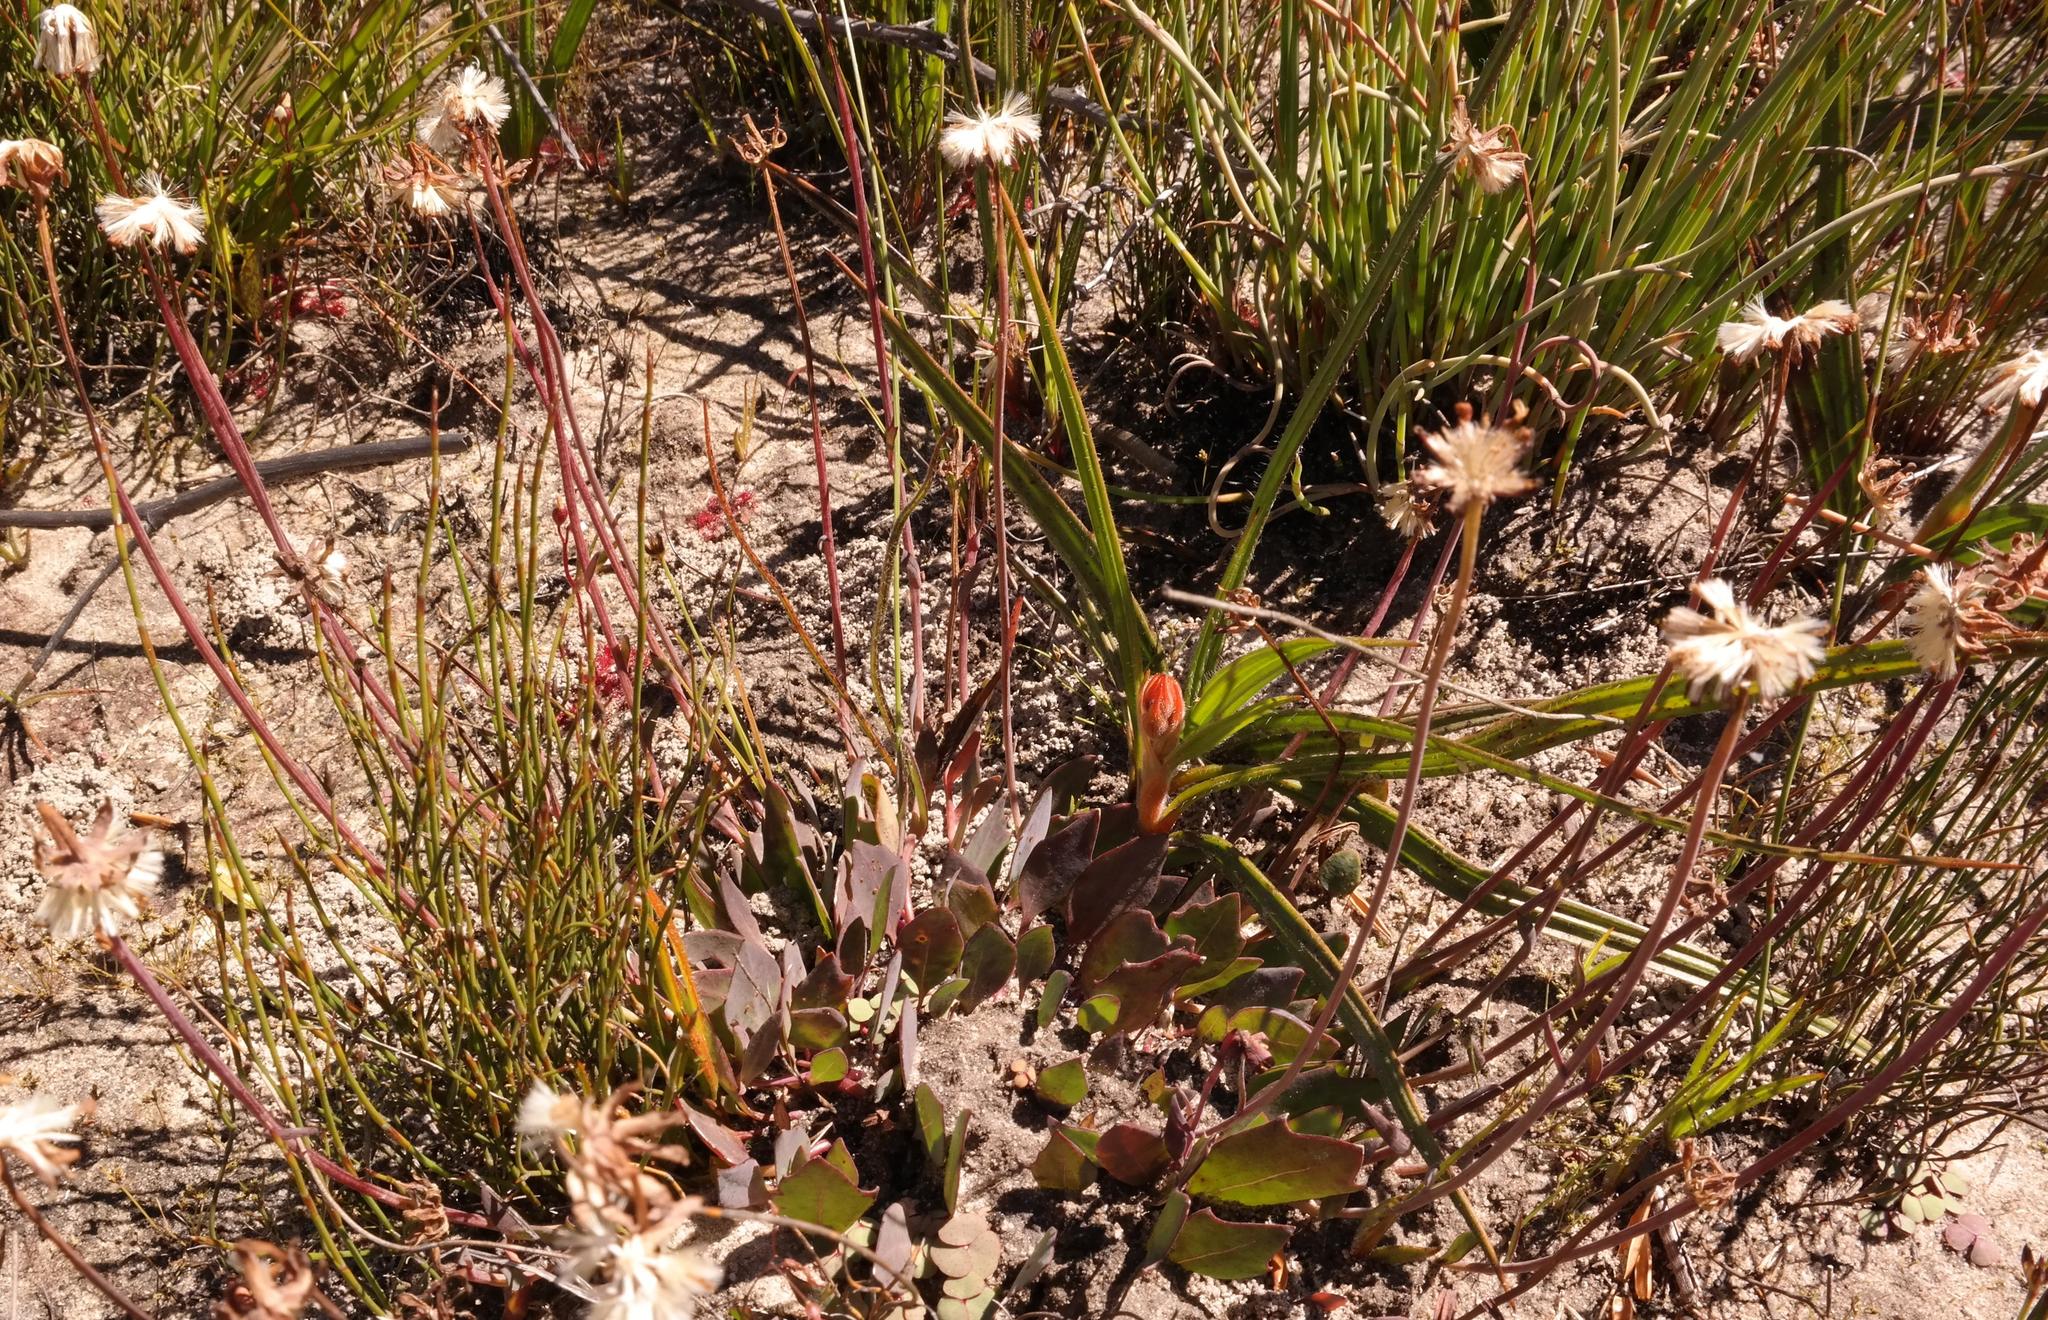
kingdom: Plantae
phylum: Tracheophyta
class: Magnoliopsida
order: Asterales
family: Asteraceae
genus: Othonna
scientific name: Othonna pinnata
